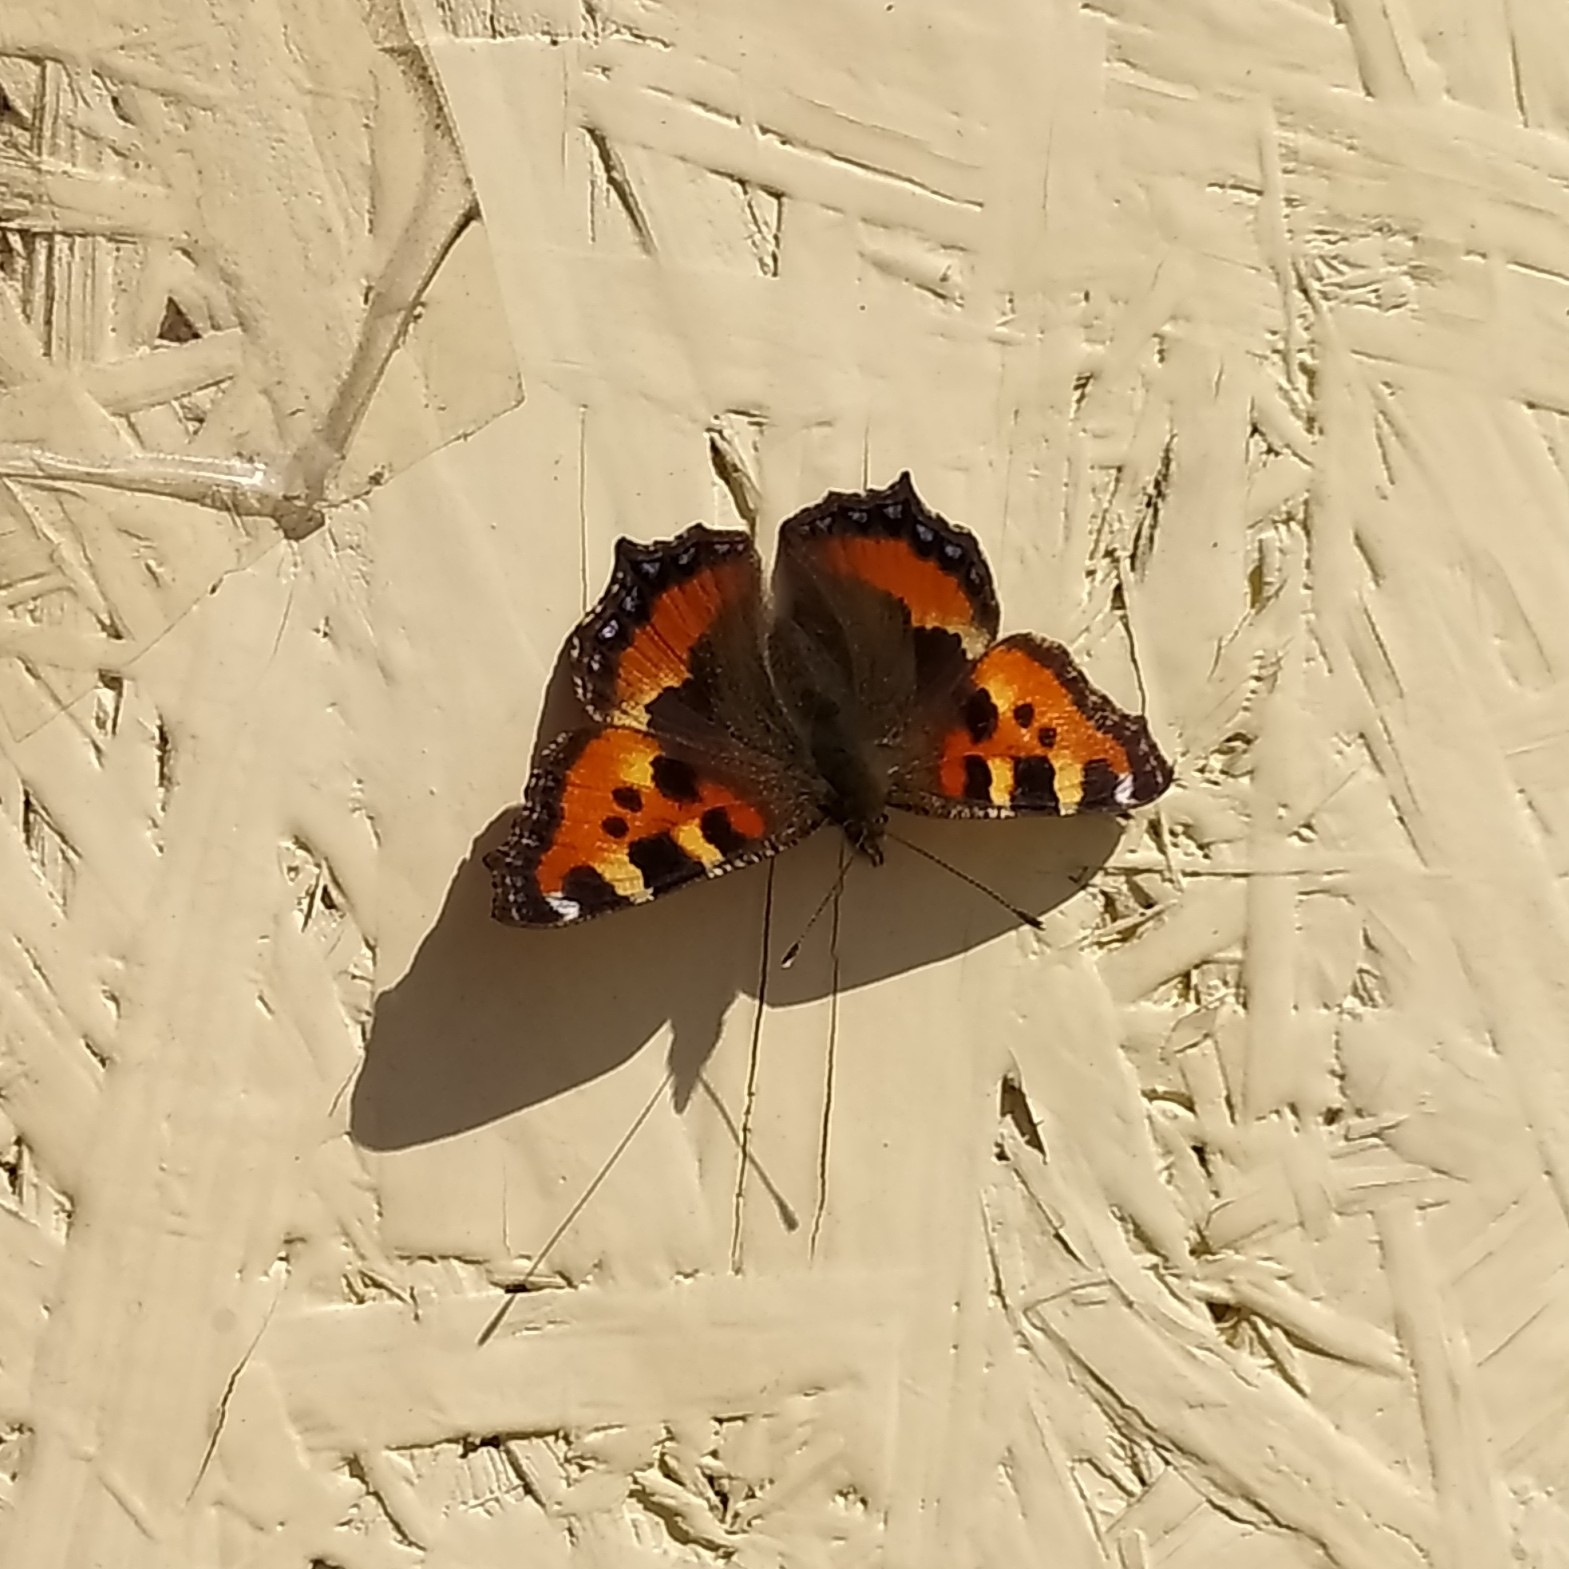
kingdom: Animalia
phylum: Arthropoda
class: Insecta
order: Lepidoptera
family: Nymphalidae
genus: Aglais
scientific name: Aglais urticae
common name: Small tortoiseshell
